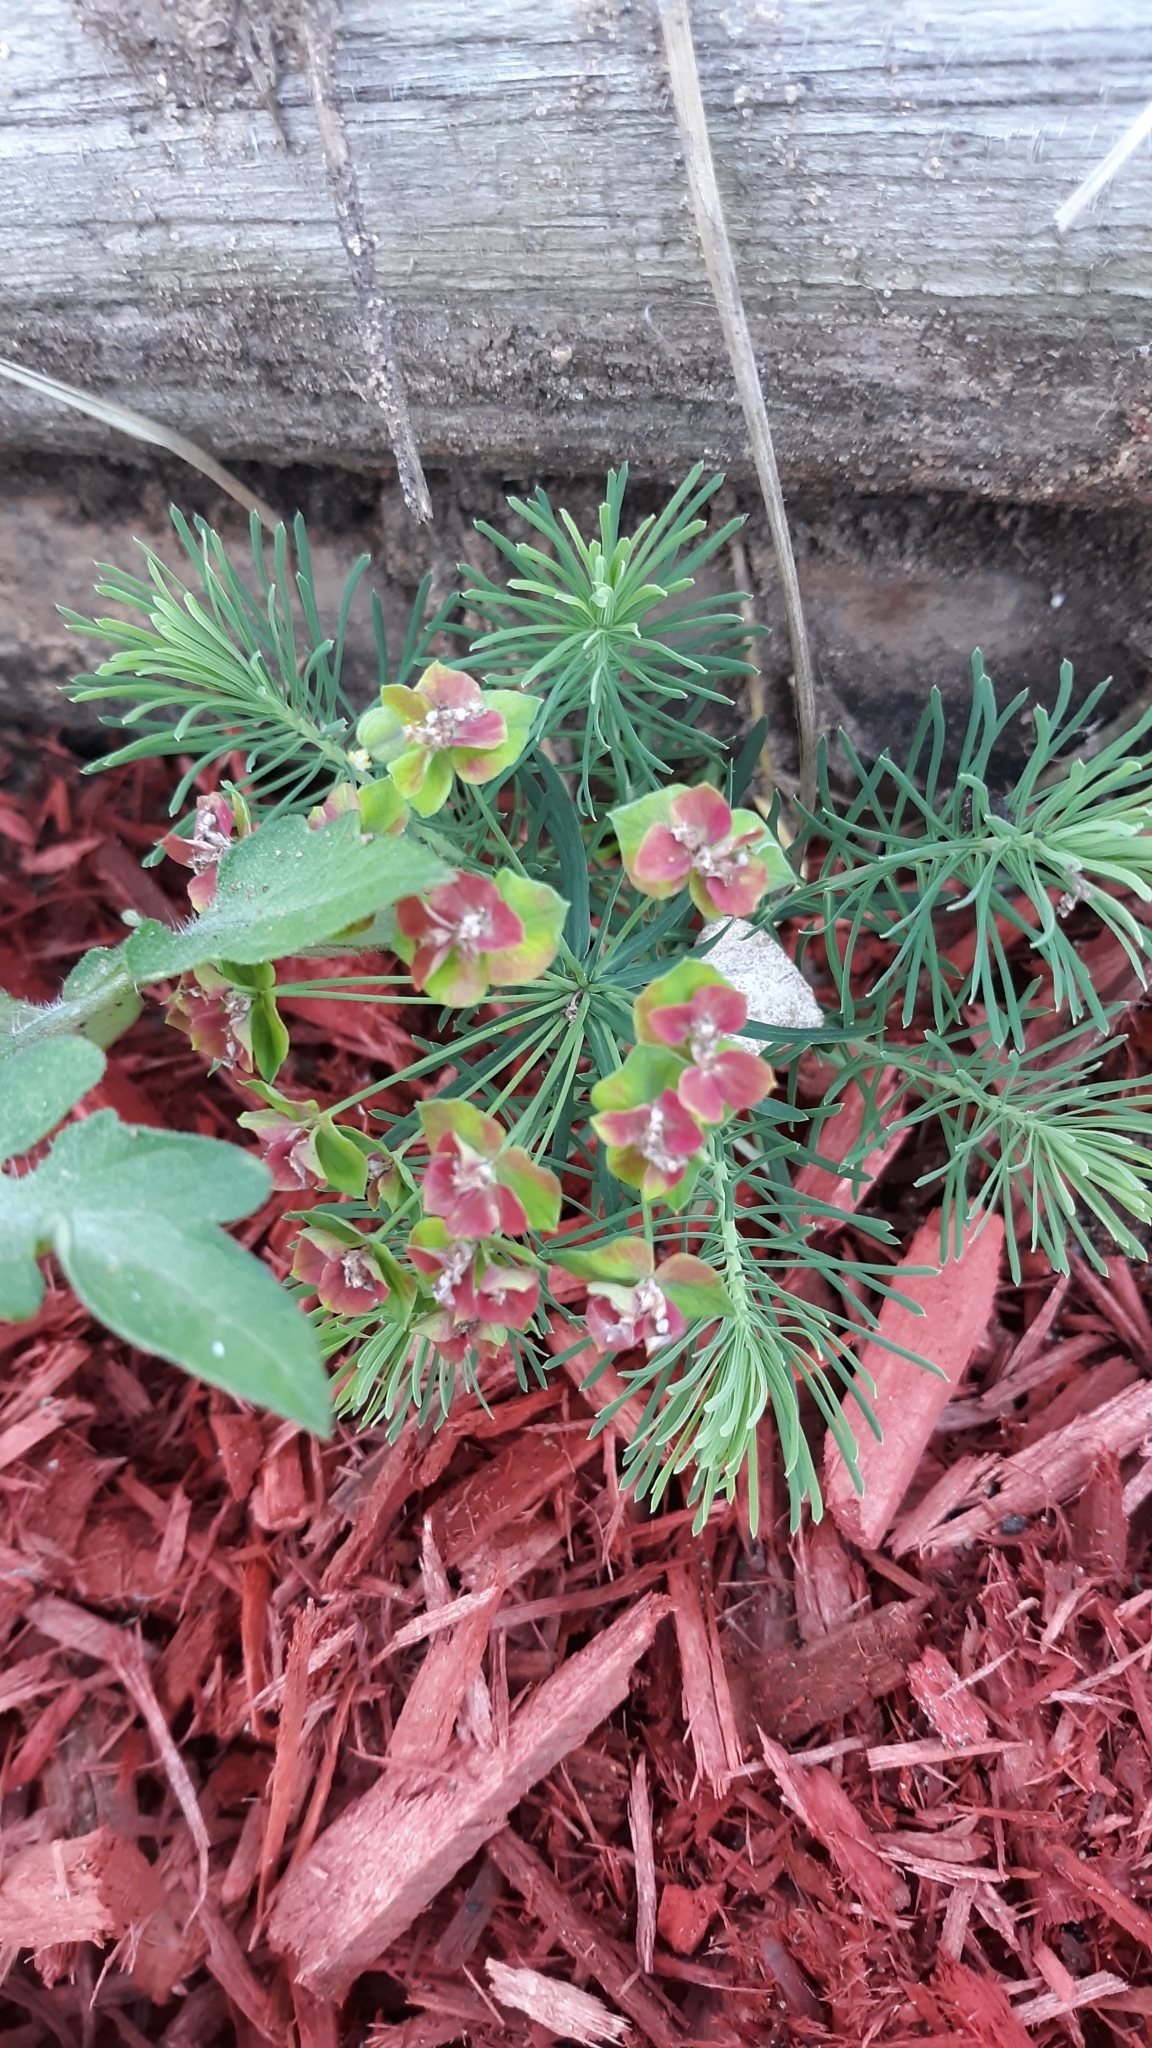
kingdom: Plantae
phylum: Tracheophyta
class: Magnoliopsida
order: Malpighiales
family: Euphorbiaceae
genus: Euphorbia
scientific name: Euphorbia cyparissias
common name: Cypress spurge
